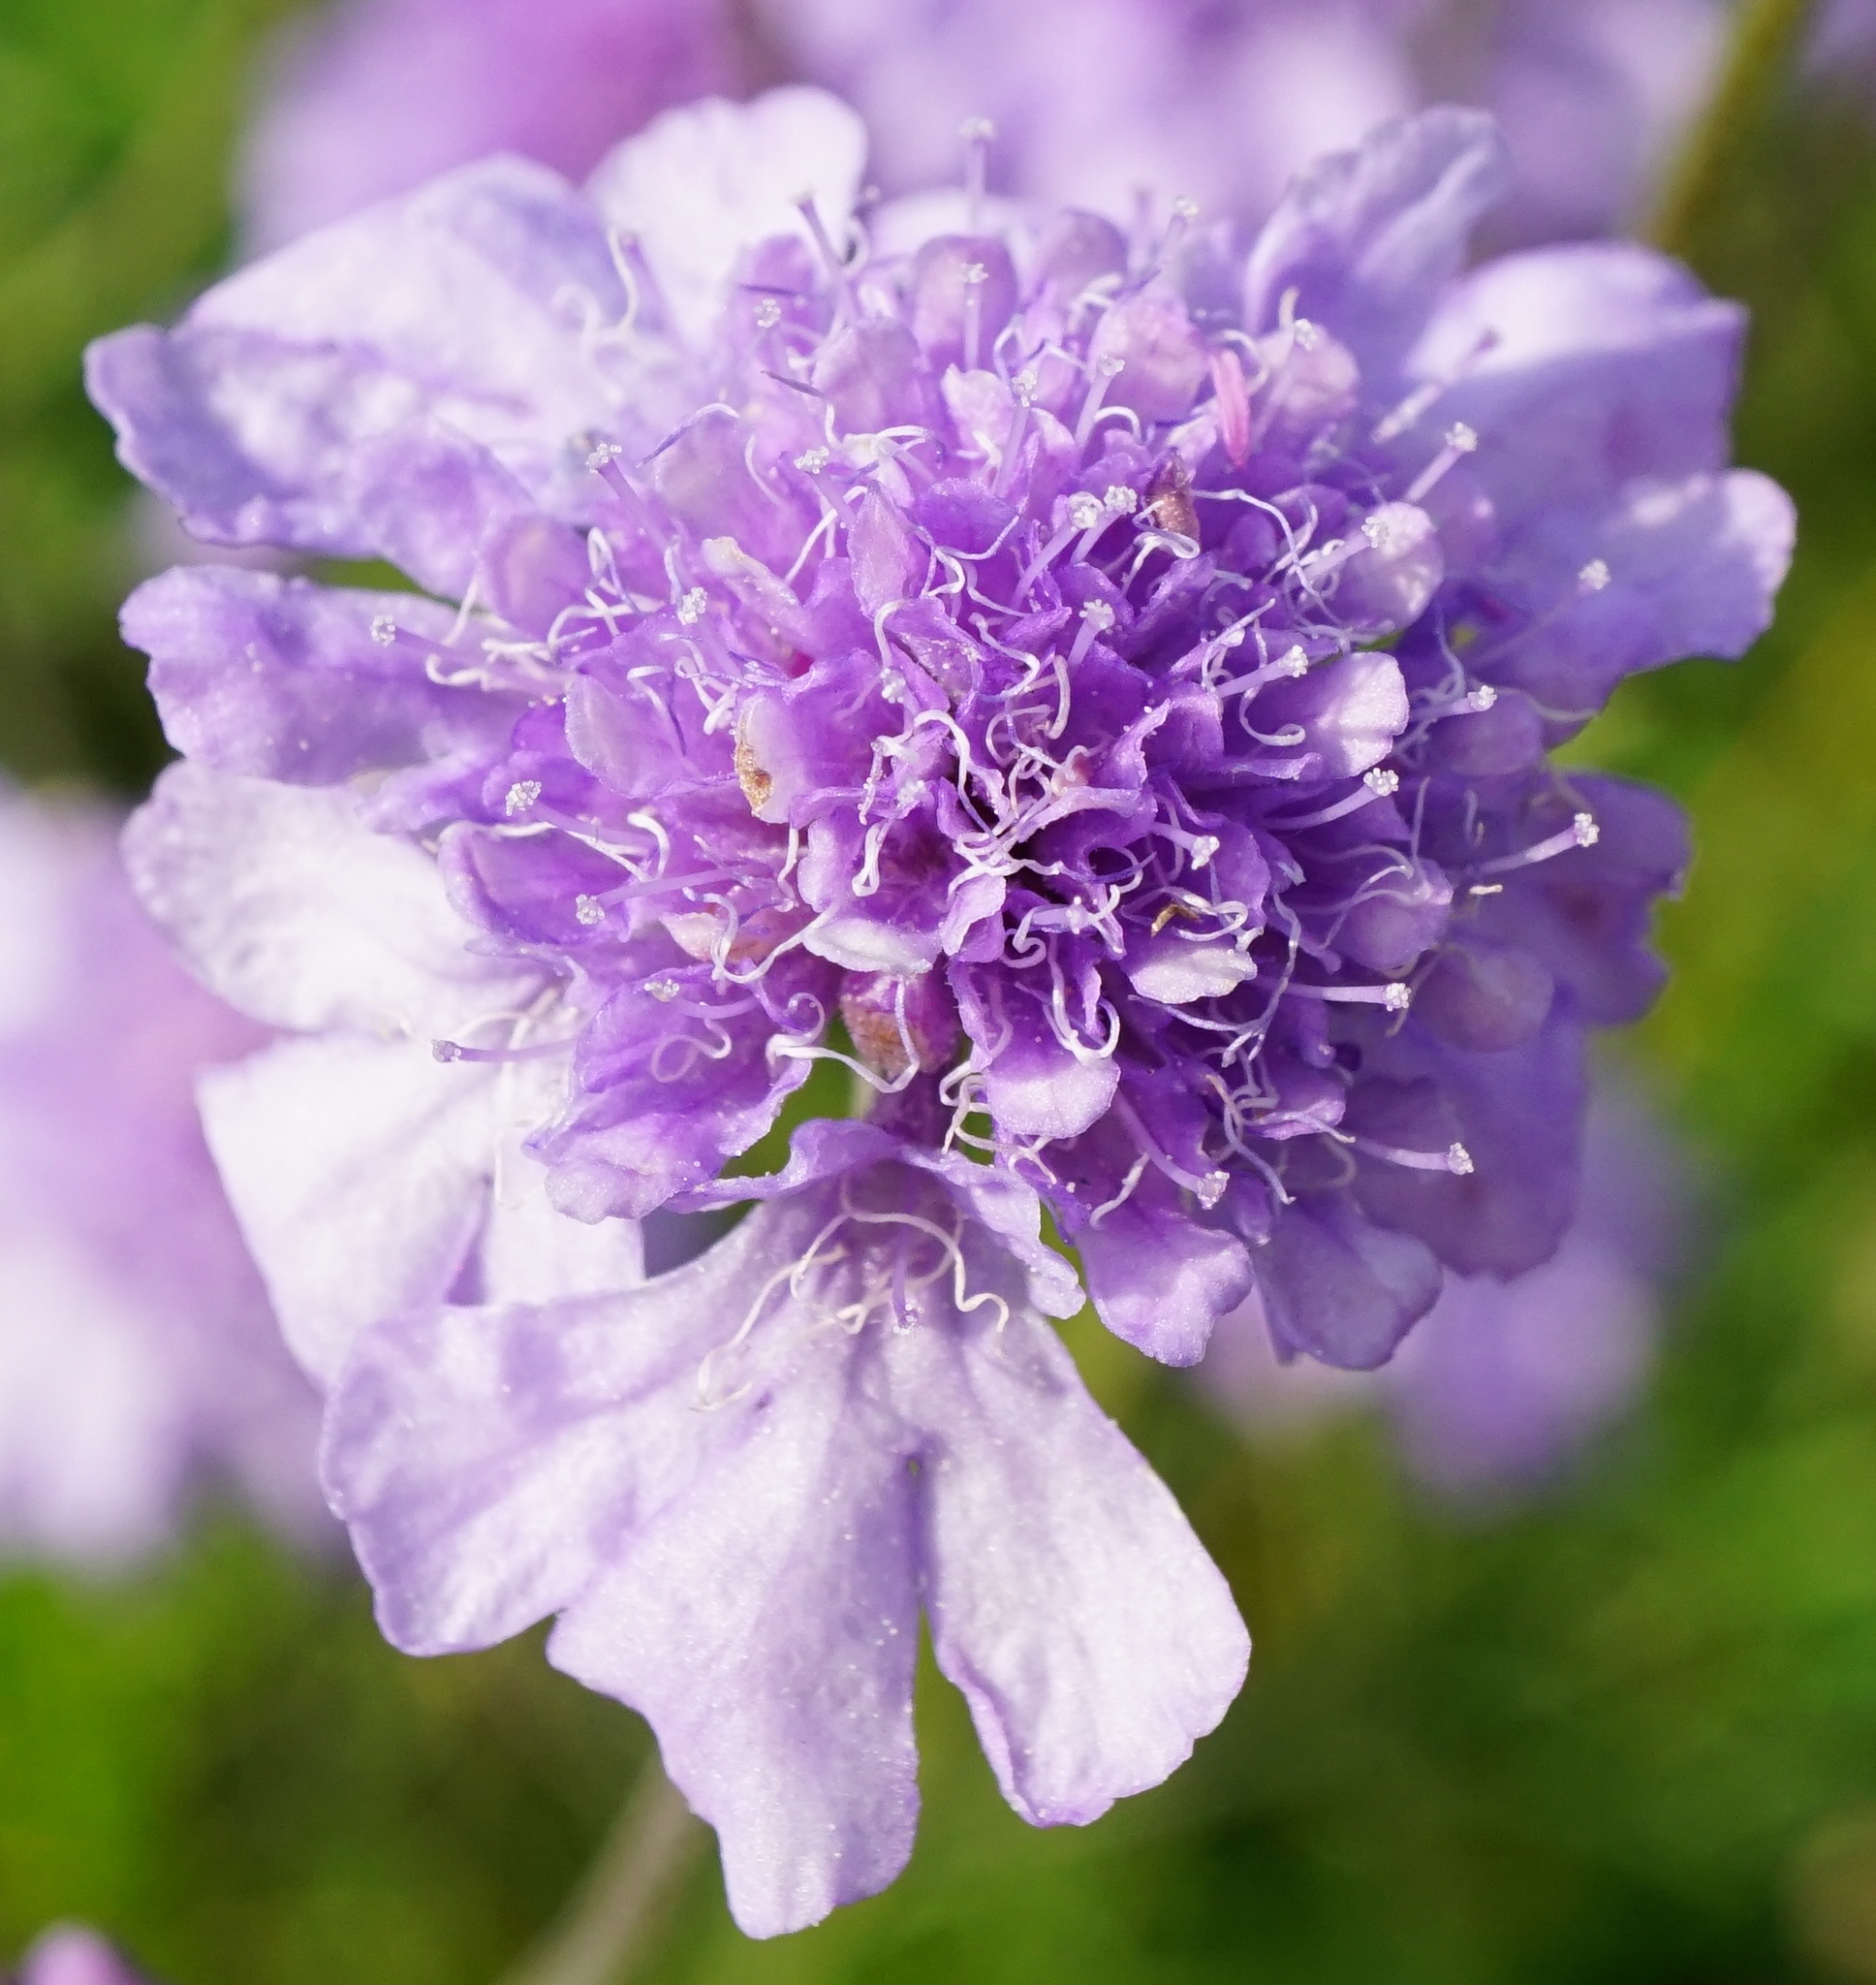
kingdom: Plantae
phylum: Tracheophyta
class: Magnoliopsida
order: Dipsacales
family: Caprifoliaceae
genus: Scabiosa
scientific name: Scabiosa canescens
